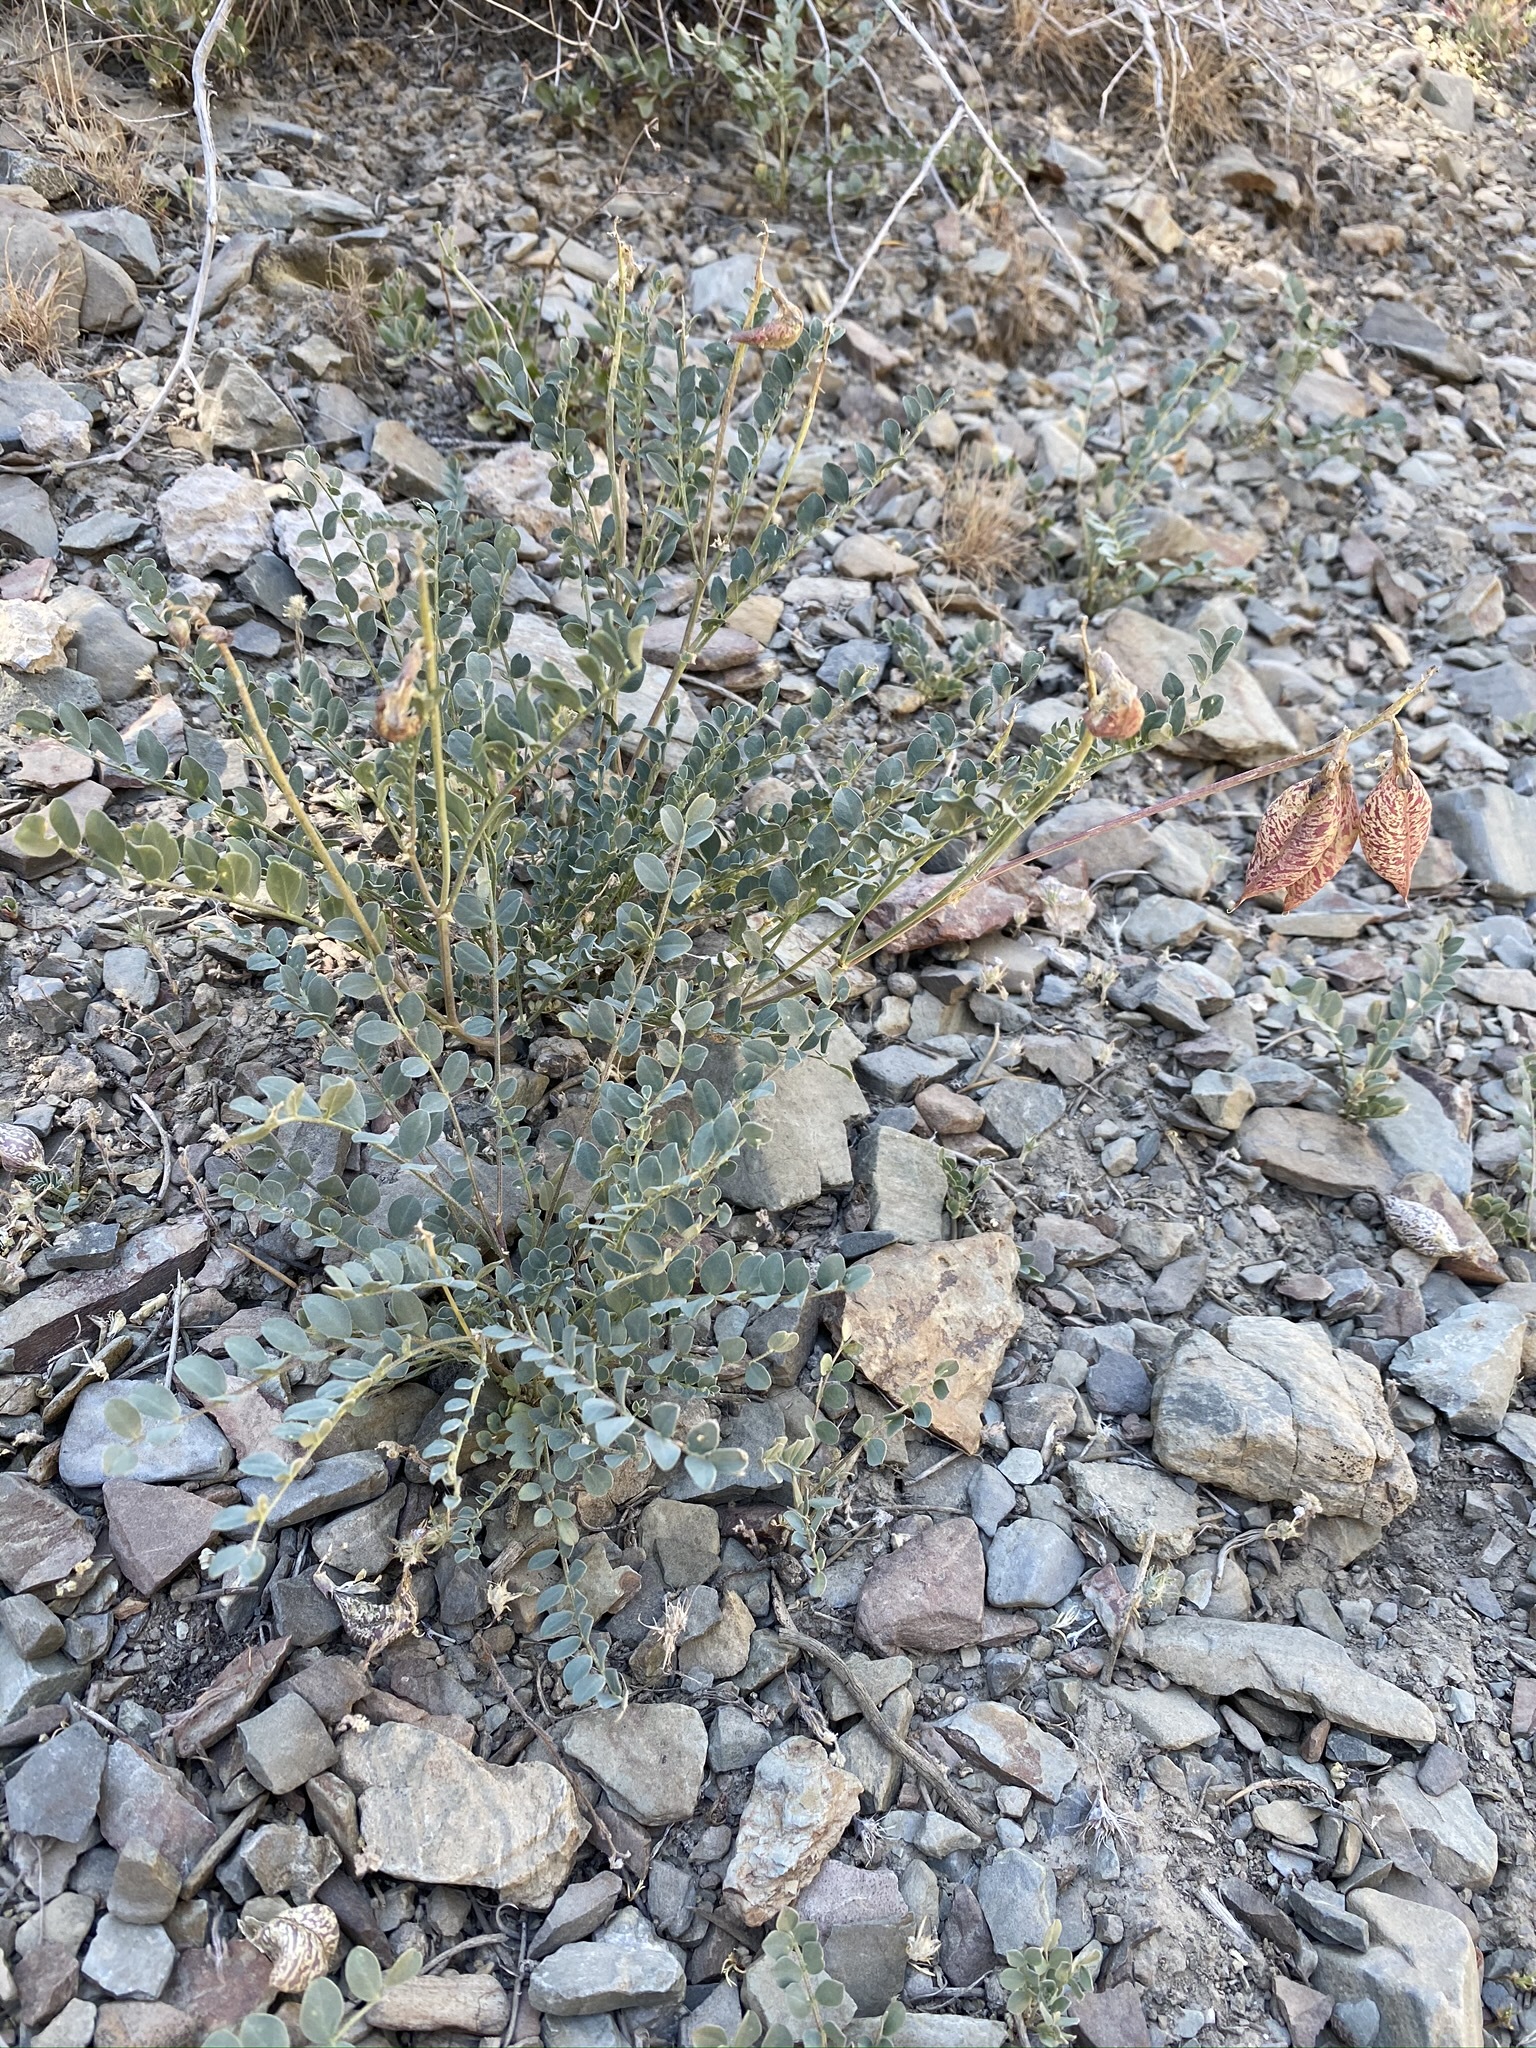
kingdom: Plantae
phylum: Tracheophyta
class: Magnoliopsida
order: Fabales
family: Fabaceae
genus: Astragalus
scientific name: Astragalus oophorus
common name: Egg milkvetch
